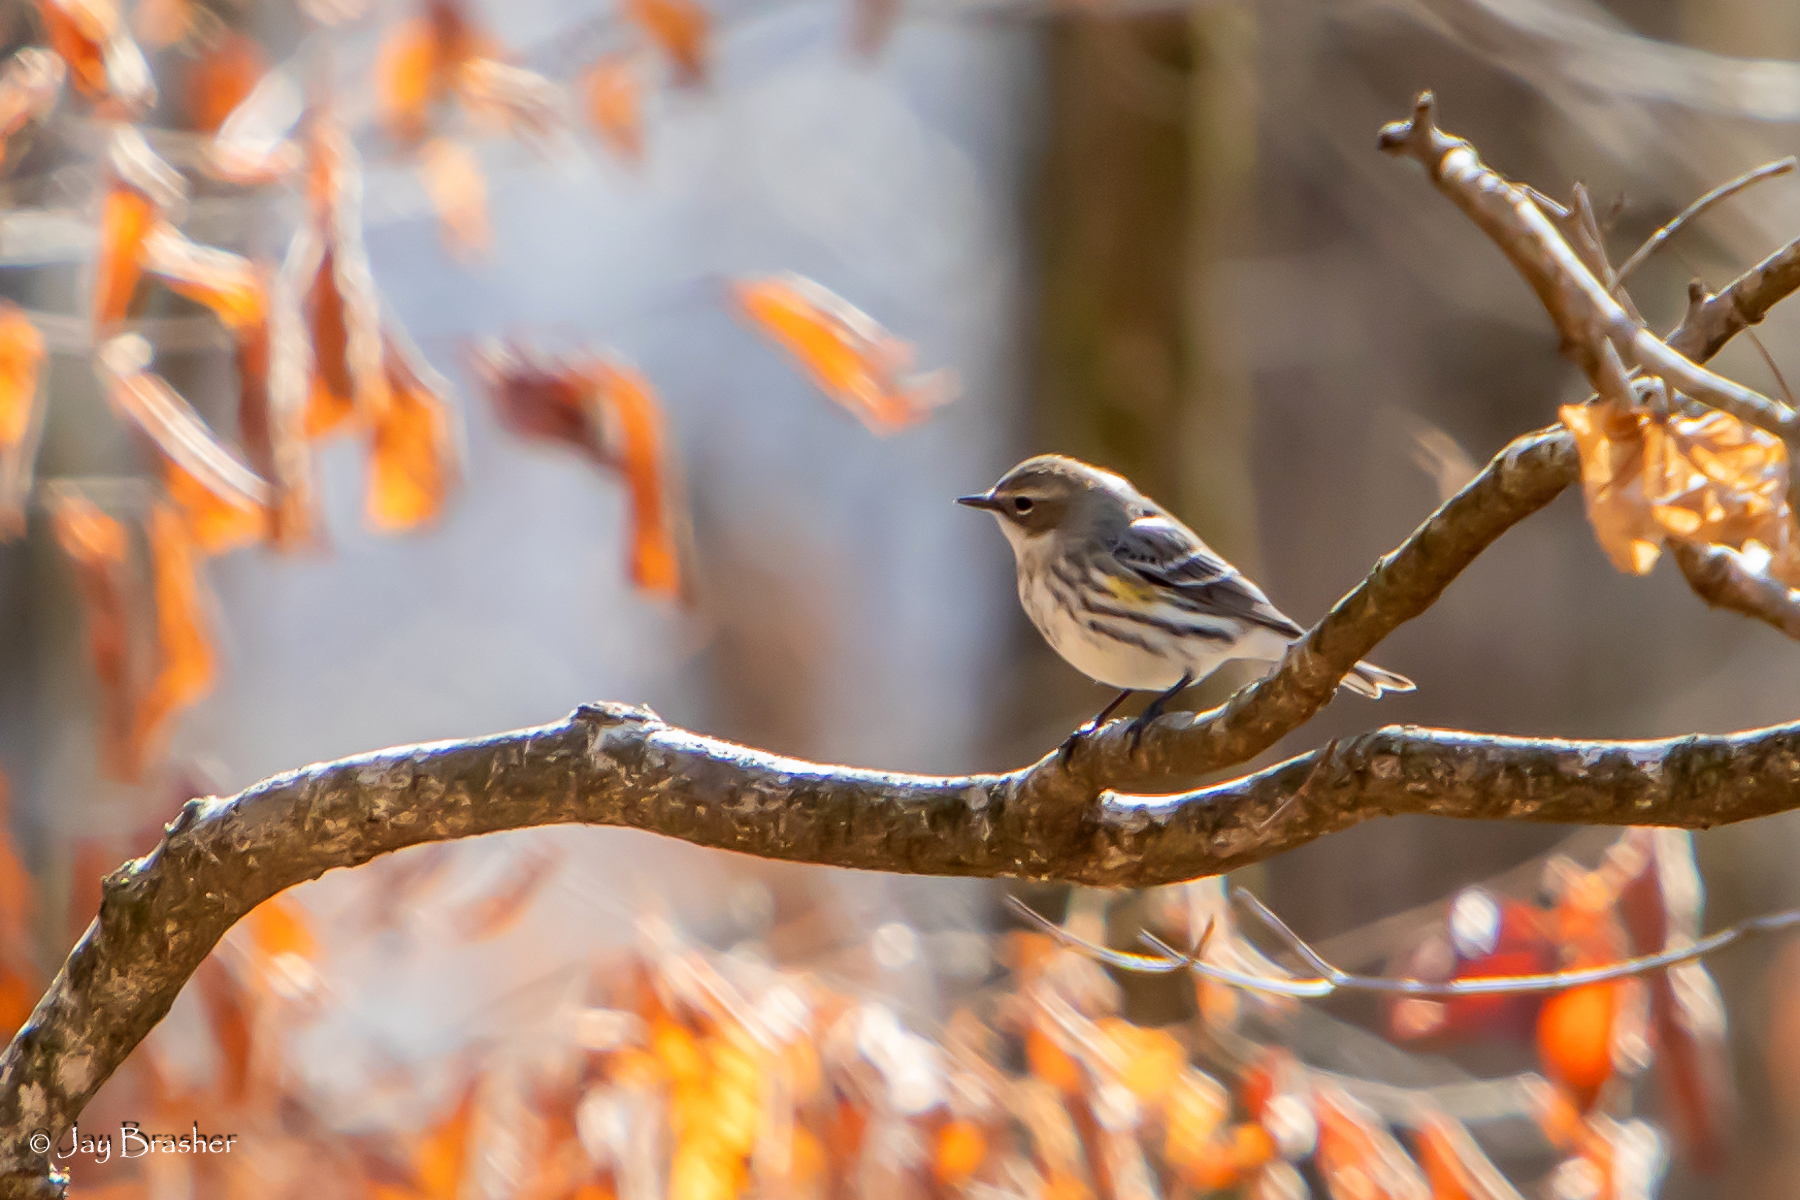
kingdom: Animalia
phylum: Chordata
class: Aves
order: Passeriformes
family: Parulidae
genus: Setophaga
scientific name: Setophaga coronata
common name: Myrtle warbler
